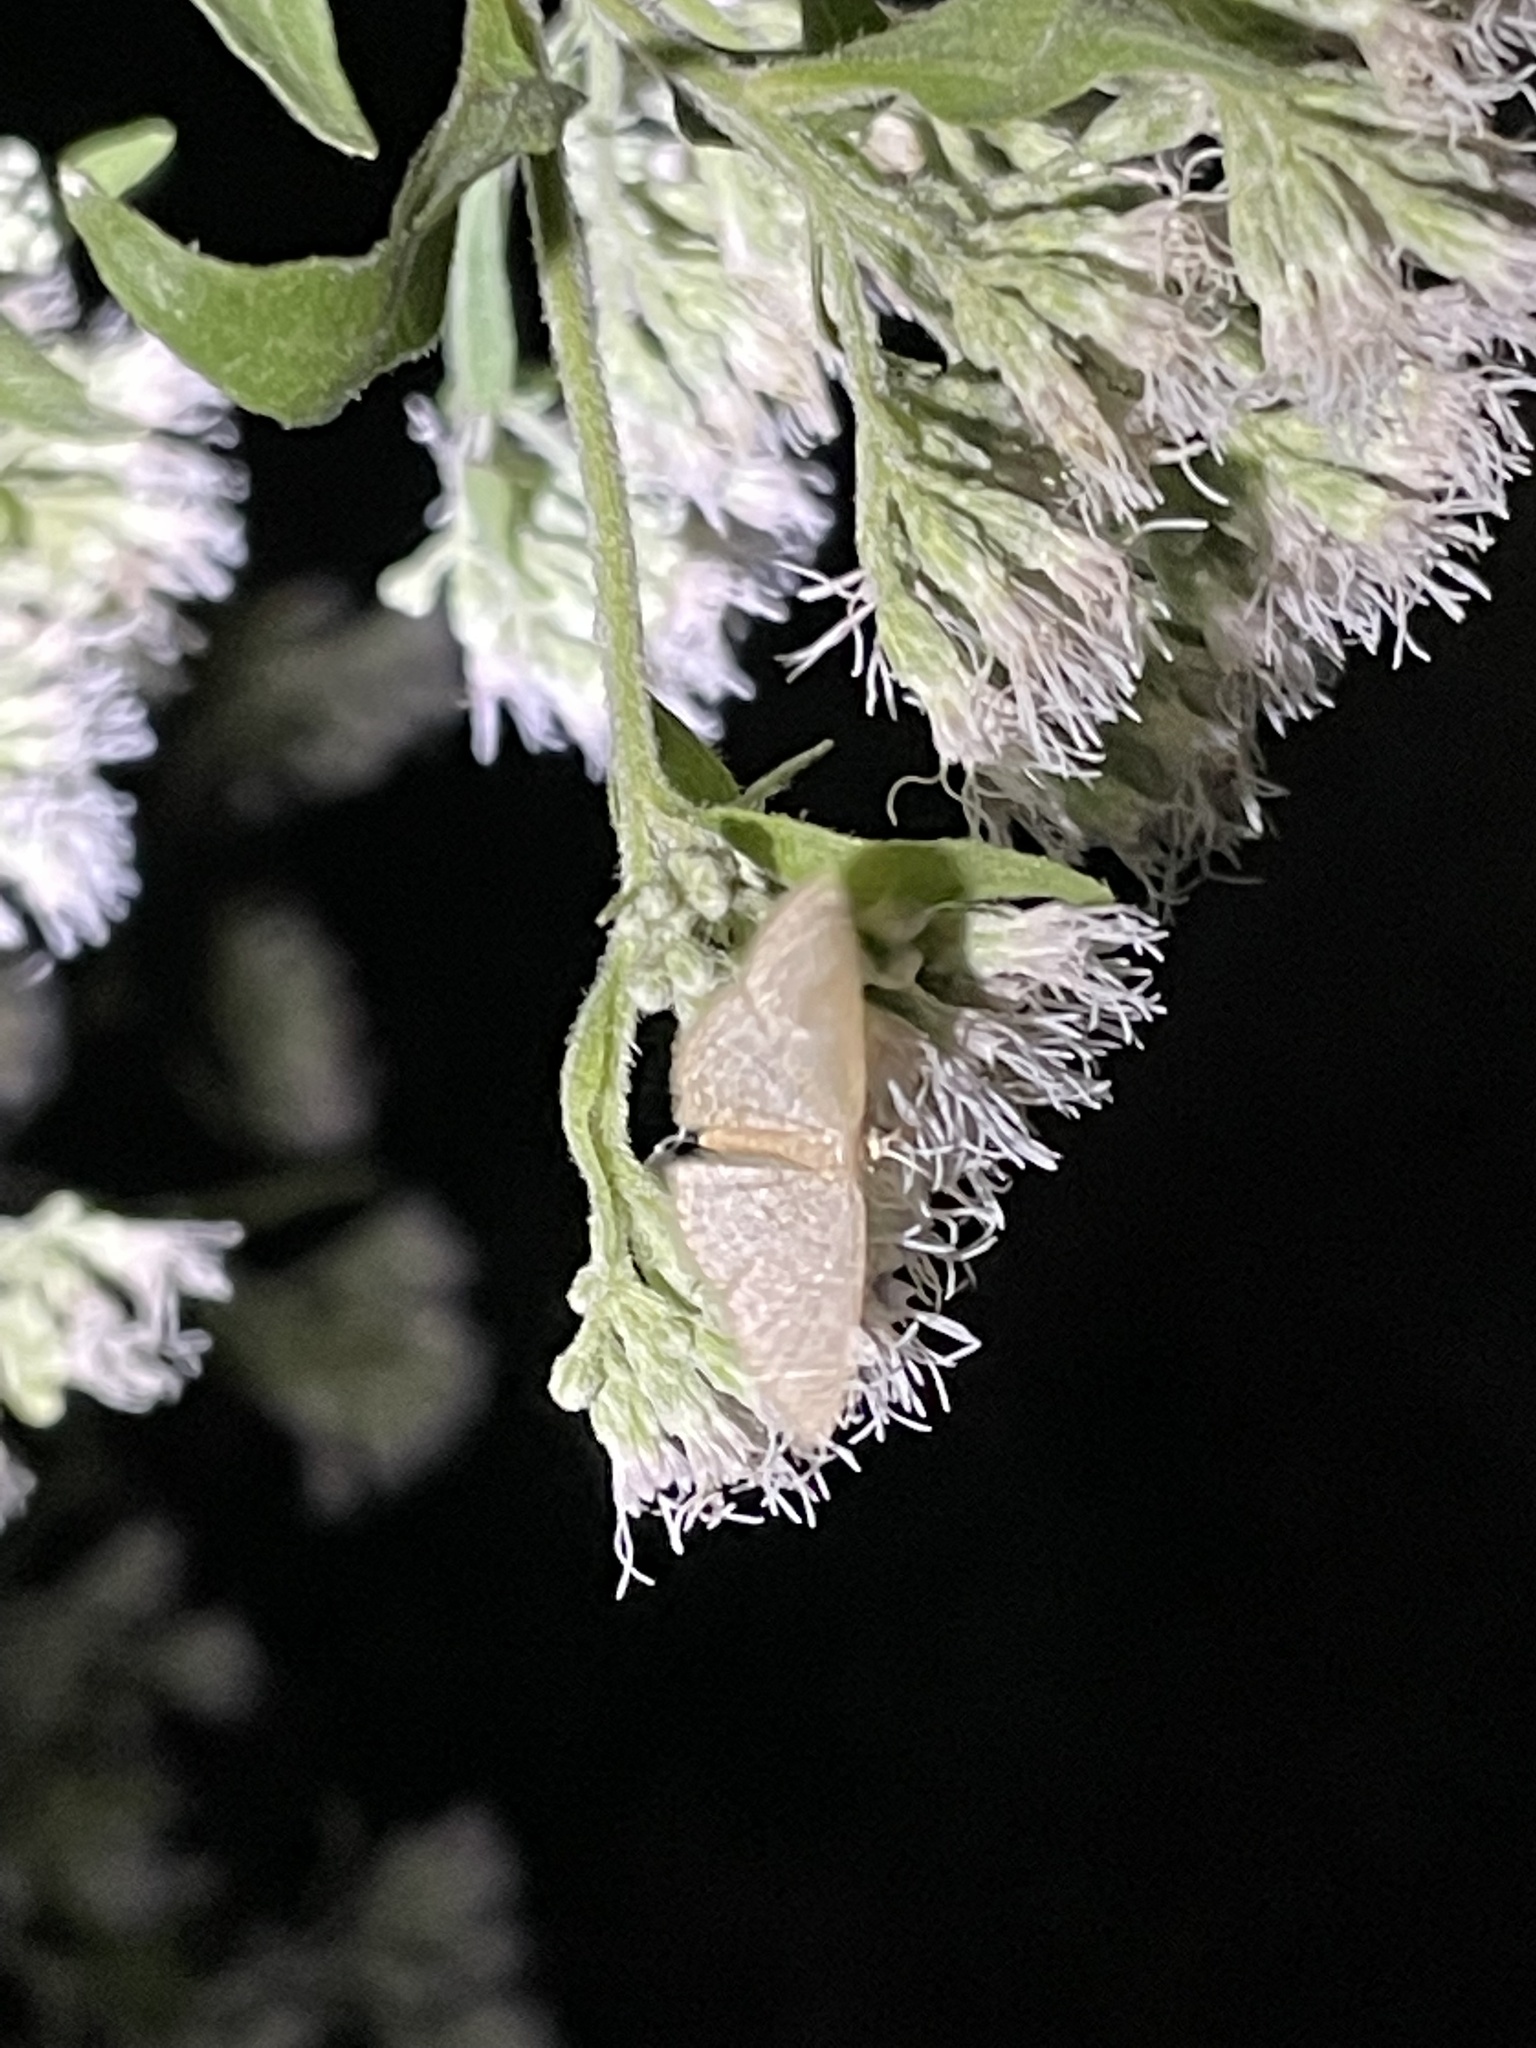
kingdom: Animalia
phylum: Arthropoda
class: Insecta
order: Lepidoptera
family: Geometridae
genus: Pleuroprucha
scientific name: Pleuroprucha insulsaria
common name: Common tan wave
